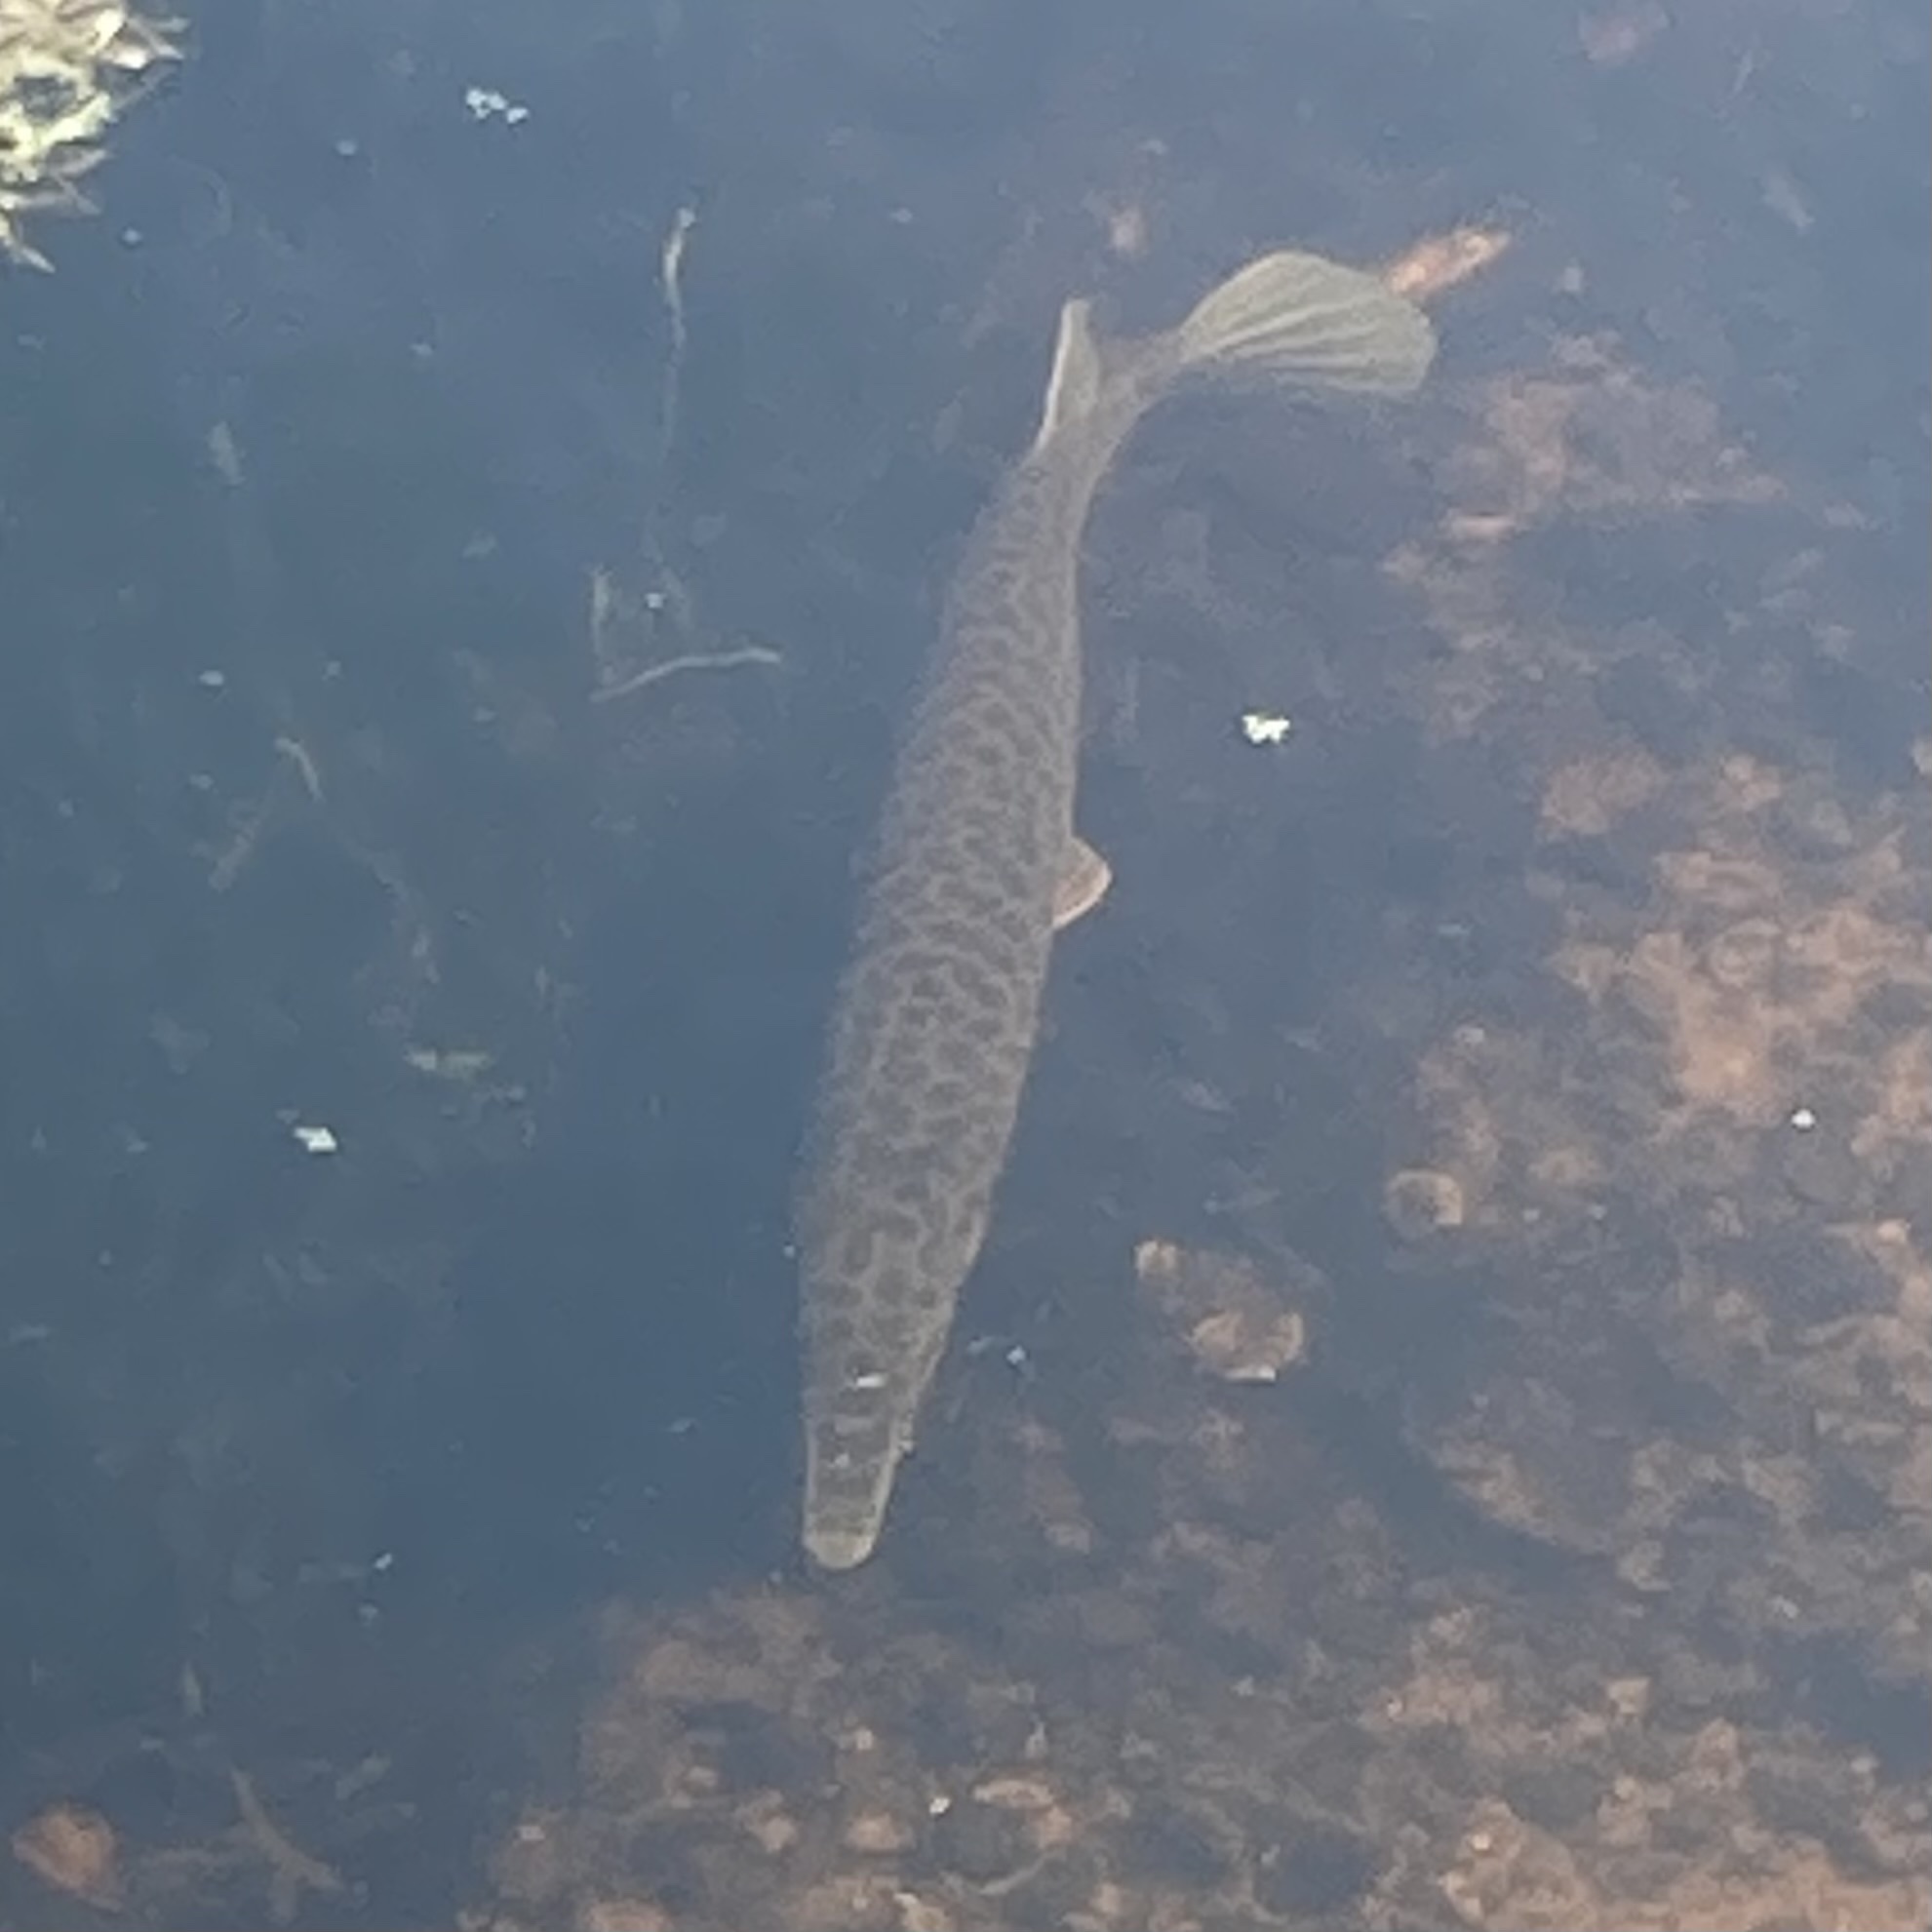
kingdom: Animalia
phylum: Chordata
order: Lepisosteiformes
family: Lepisosteidae
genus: Lepisosteus
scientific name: Lepisosteus platyrhincus
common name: Florida gar
